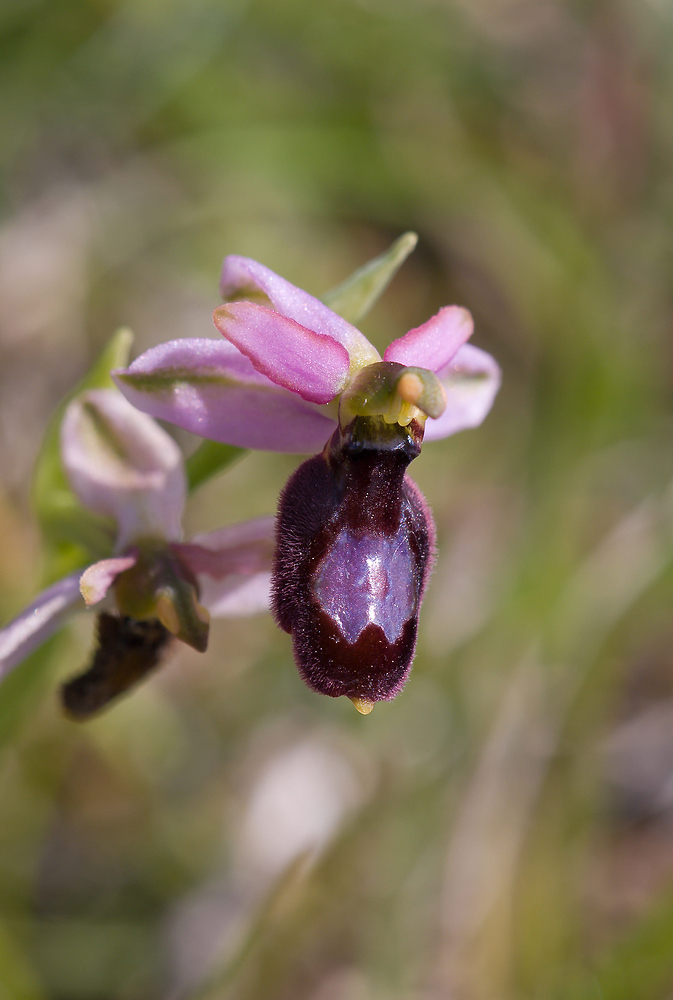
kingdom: Plantae
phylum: Tracheophyta
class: Liliopsida
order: Asparagales
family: Orchidaceae
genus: Ophrys
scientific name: Ophrys flavicans
